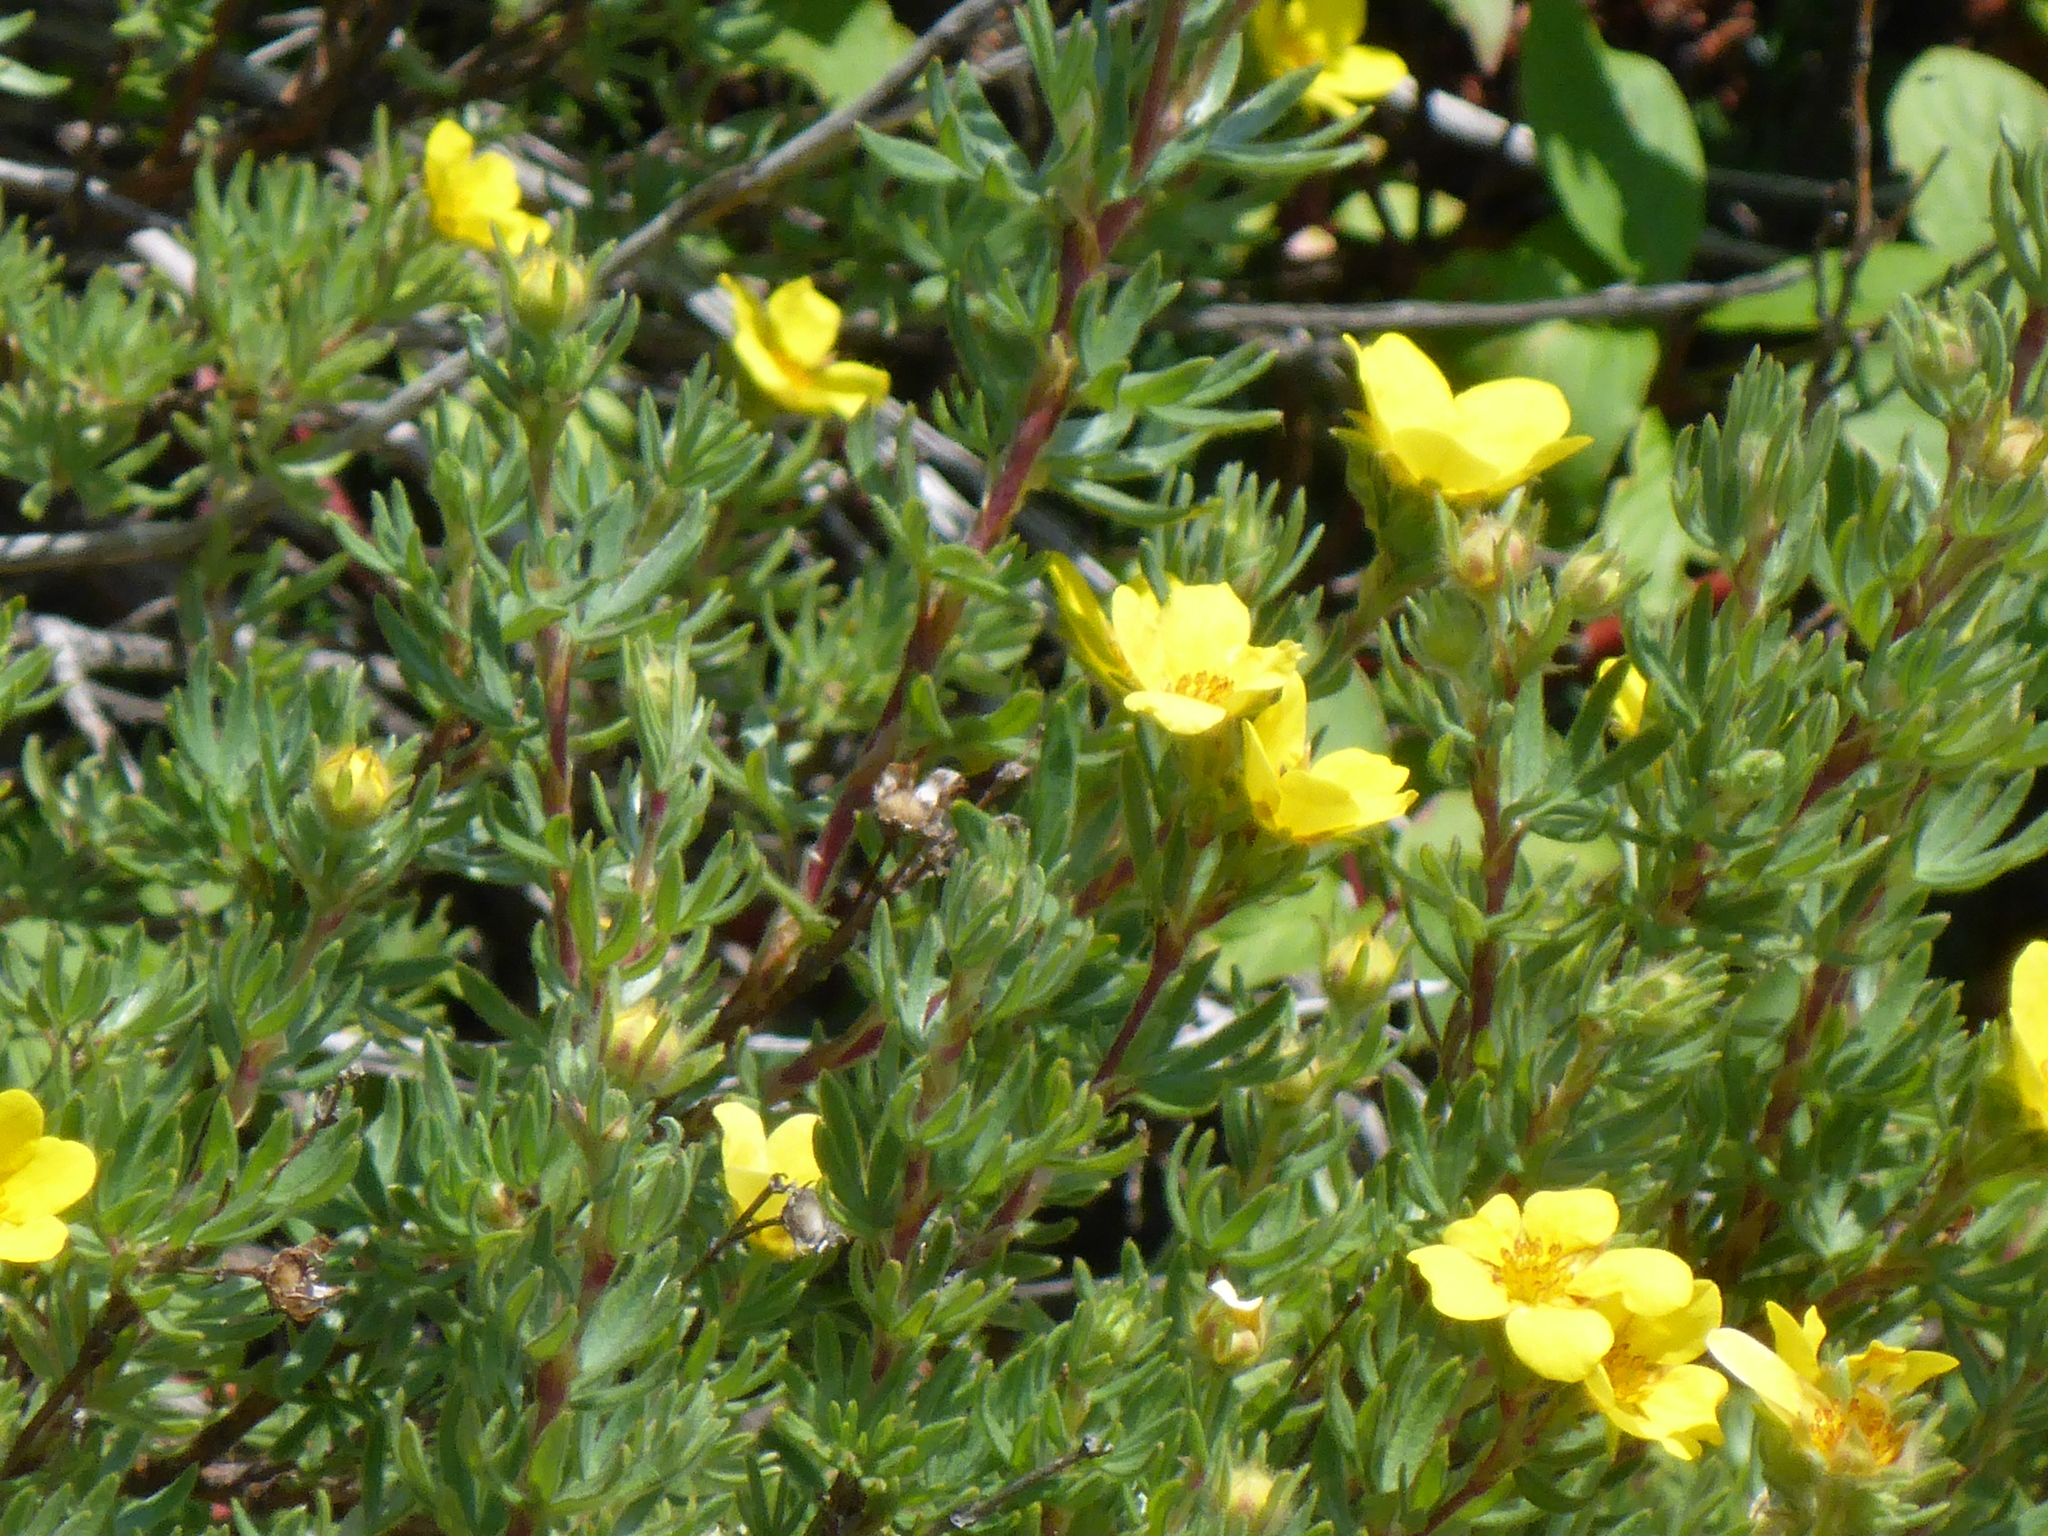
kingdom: Plantae
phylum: Tracheophyta
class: Magnoliopsida
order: Rosales
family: Rosaceae
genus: Dasiphora
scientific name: Dasiphora fruticosa
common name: Shrubby cinquefoil
